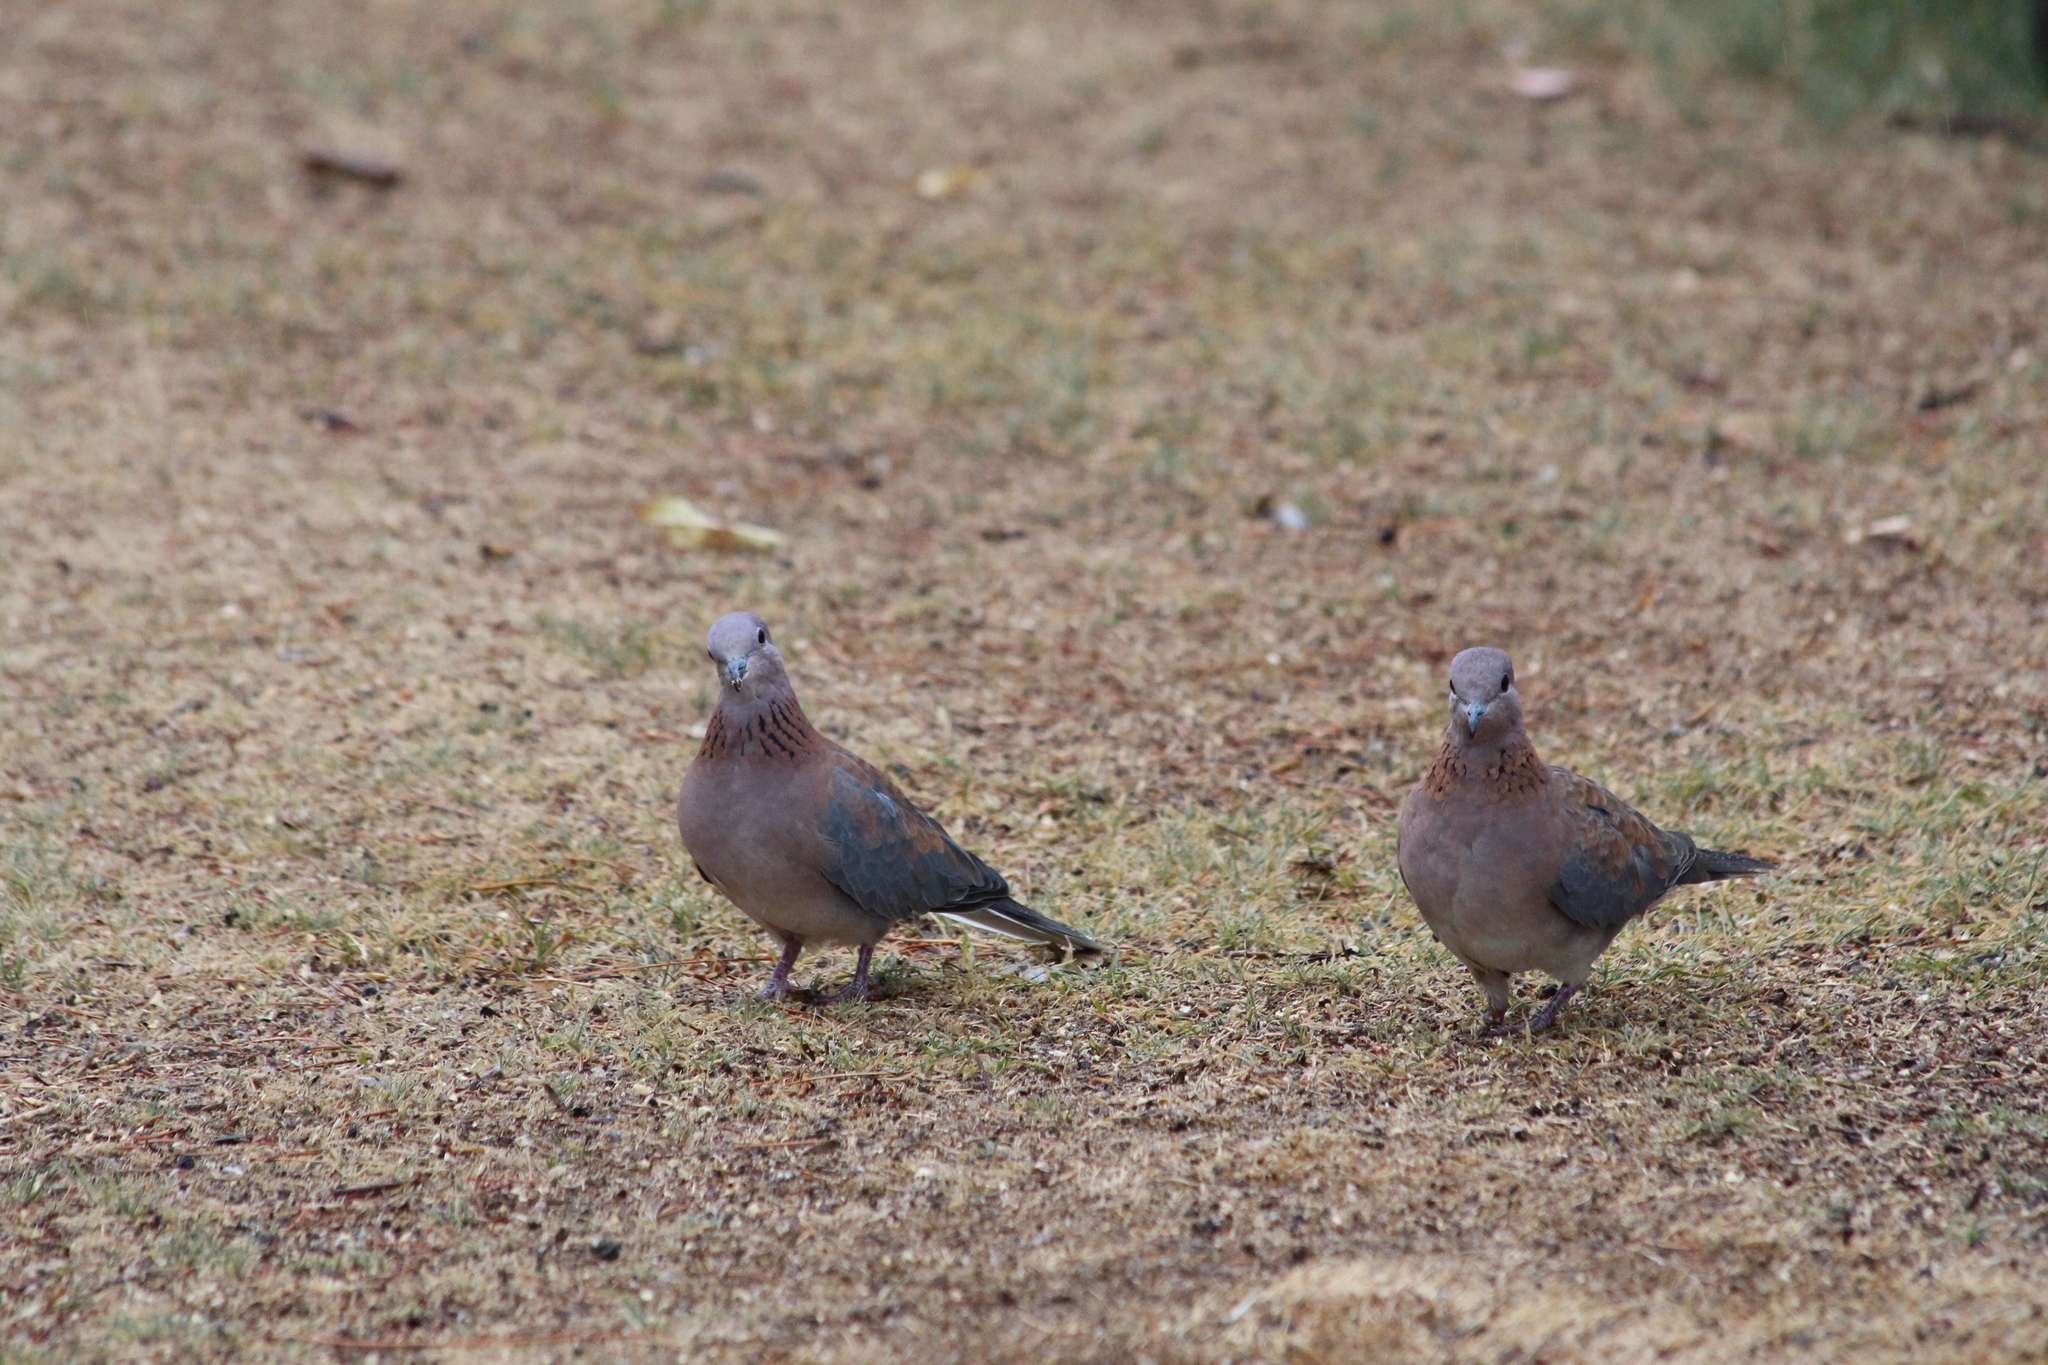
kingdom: Animalia
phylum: Chordata
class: Aves
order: Columbiformes
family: Columbidae
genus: Spilopelia
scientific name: Spilopelia senegalensis
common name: Laughing dove
